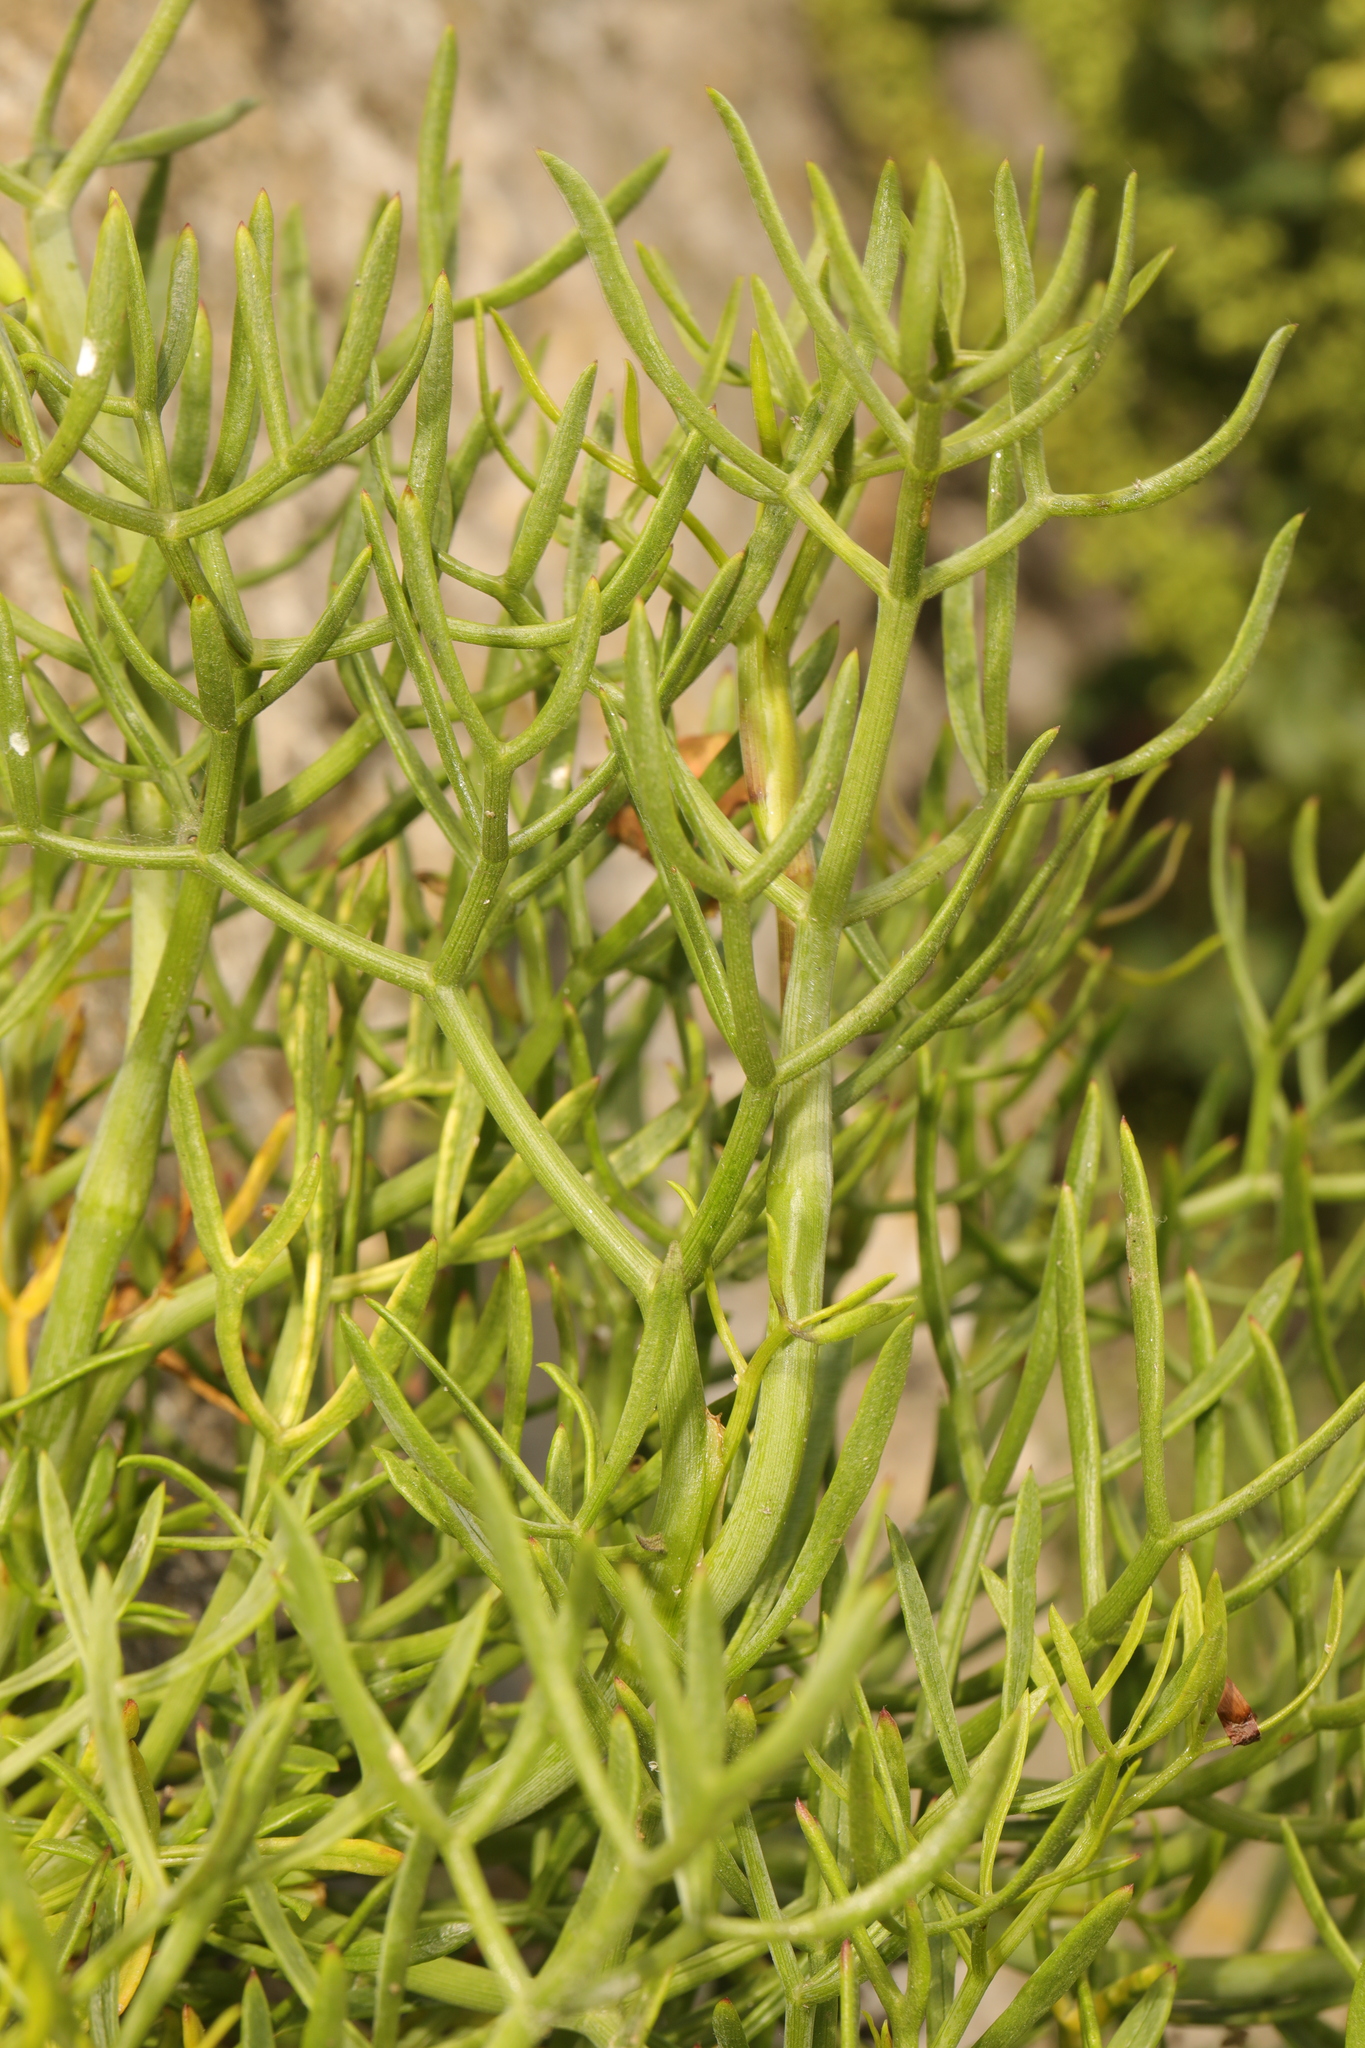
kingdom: Plantae
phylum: Tracheophyta
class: Magnoliopsida
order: Apiales
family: Apiaceae
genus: Crithmum
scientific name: Crithmum maritimum
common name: Rock samphire
